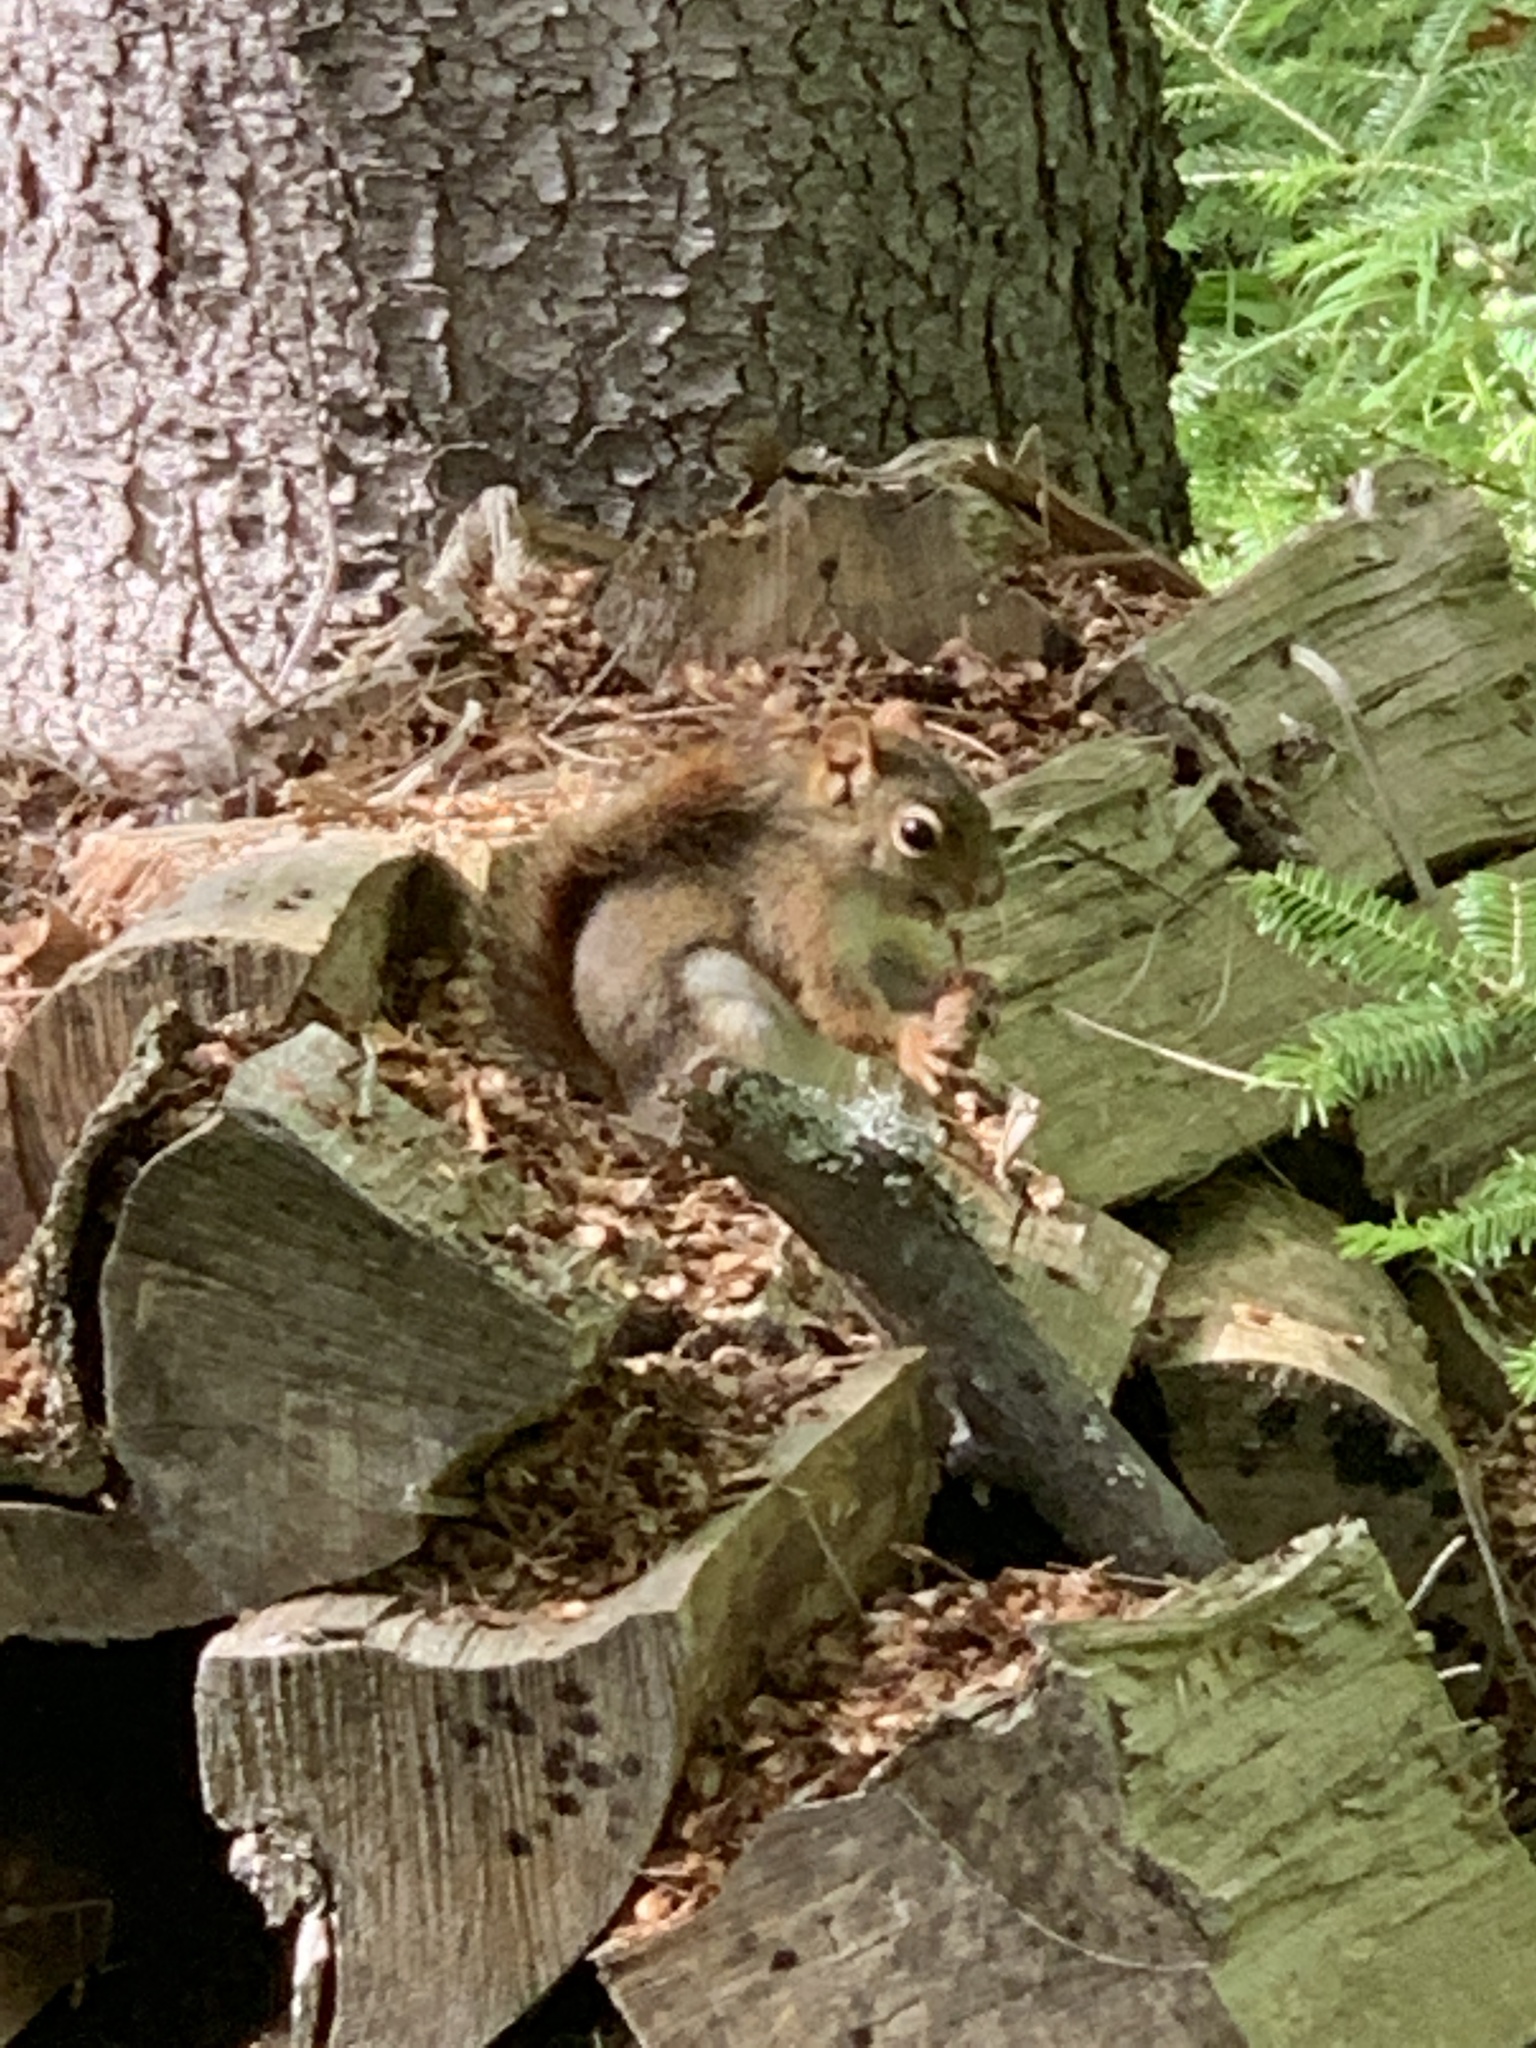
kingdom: Animalia
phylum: Chordata
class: Mammalia
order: Rodentia
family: Sciuridae
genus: Tamiasciurus
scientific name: Tamiasciurus hudsonicus
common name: Red squirrel
